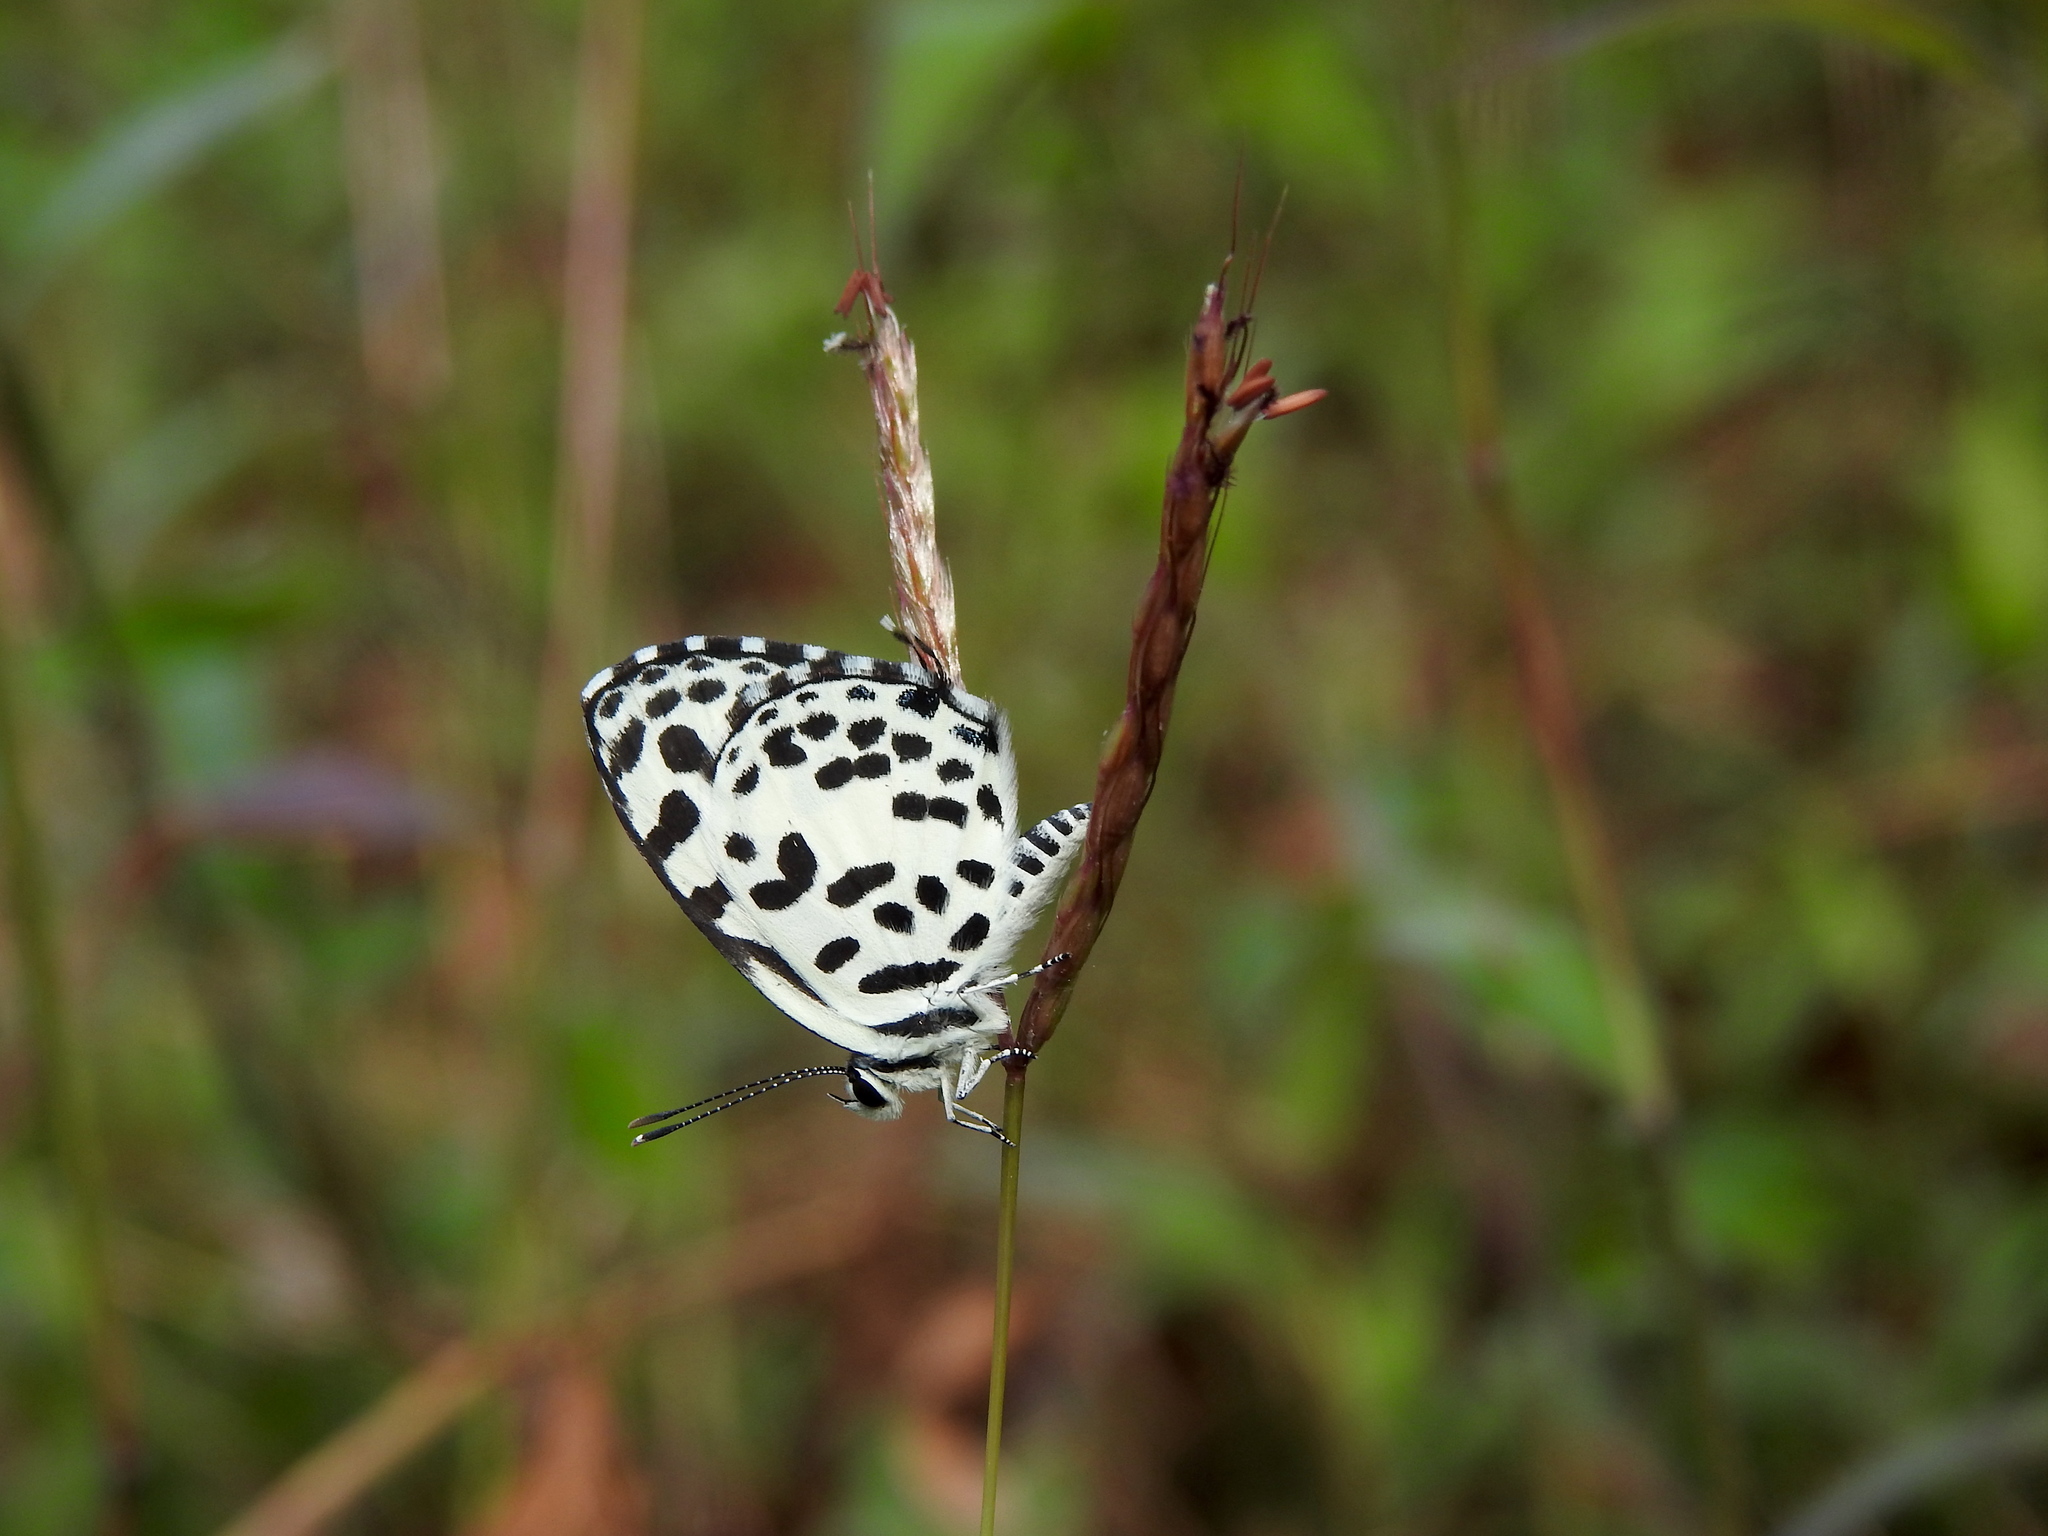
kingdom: Animalia
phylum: Arthropoda
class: Insecta
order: Lepidoptera
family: Lycaenidae
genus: Castalius
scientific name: Castalius rosimon
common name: Common pierrot
